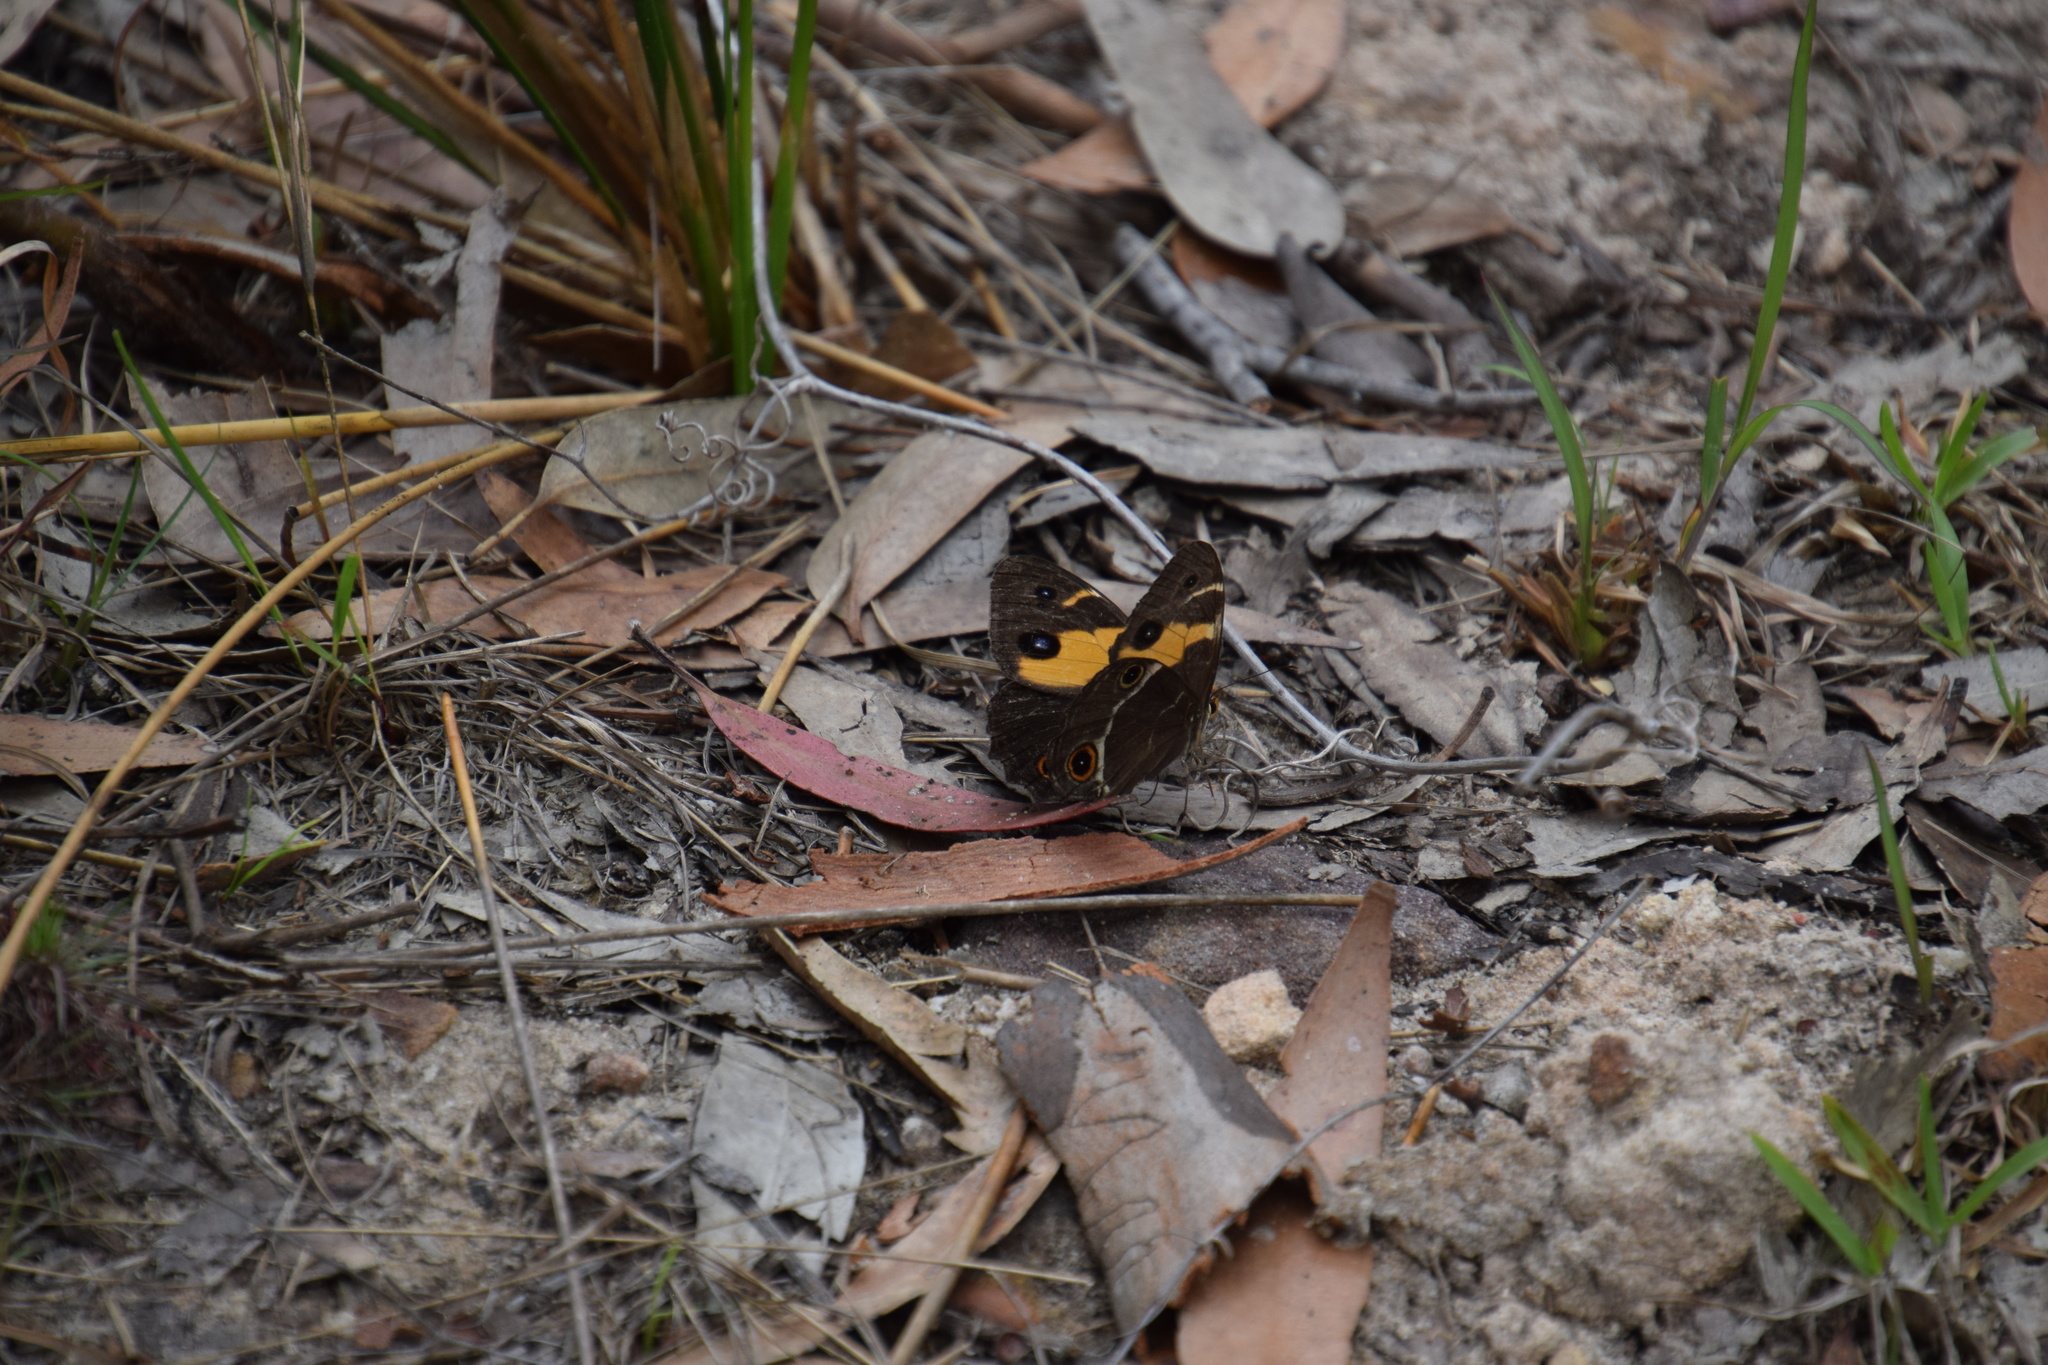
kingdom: Animalia
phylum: Arthropoda
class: Insecta
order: Lepidoptera
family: Nymphalidae
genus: Tisiphone
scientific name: Tisiphone abeona
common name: Swordgrass brown
